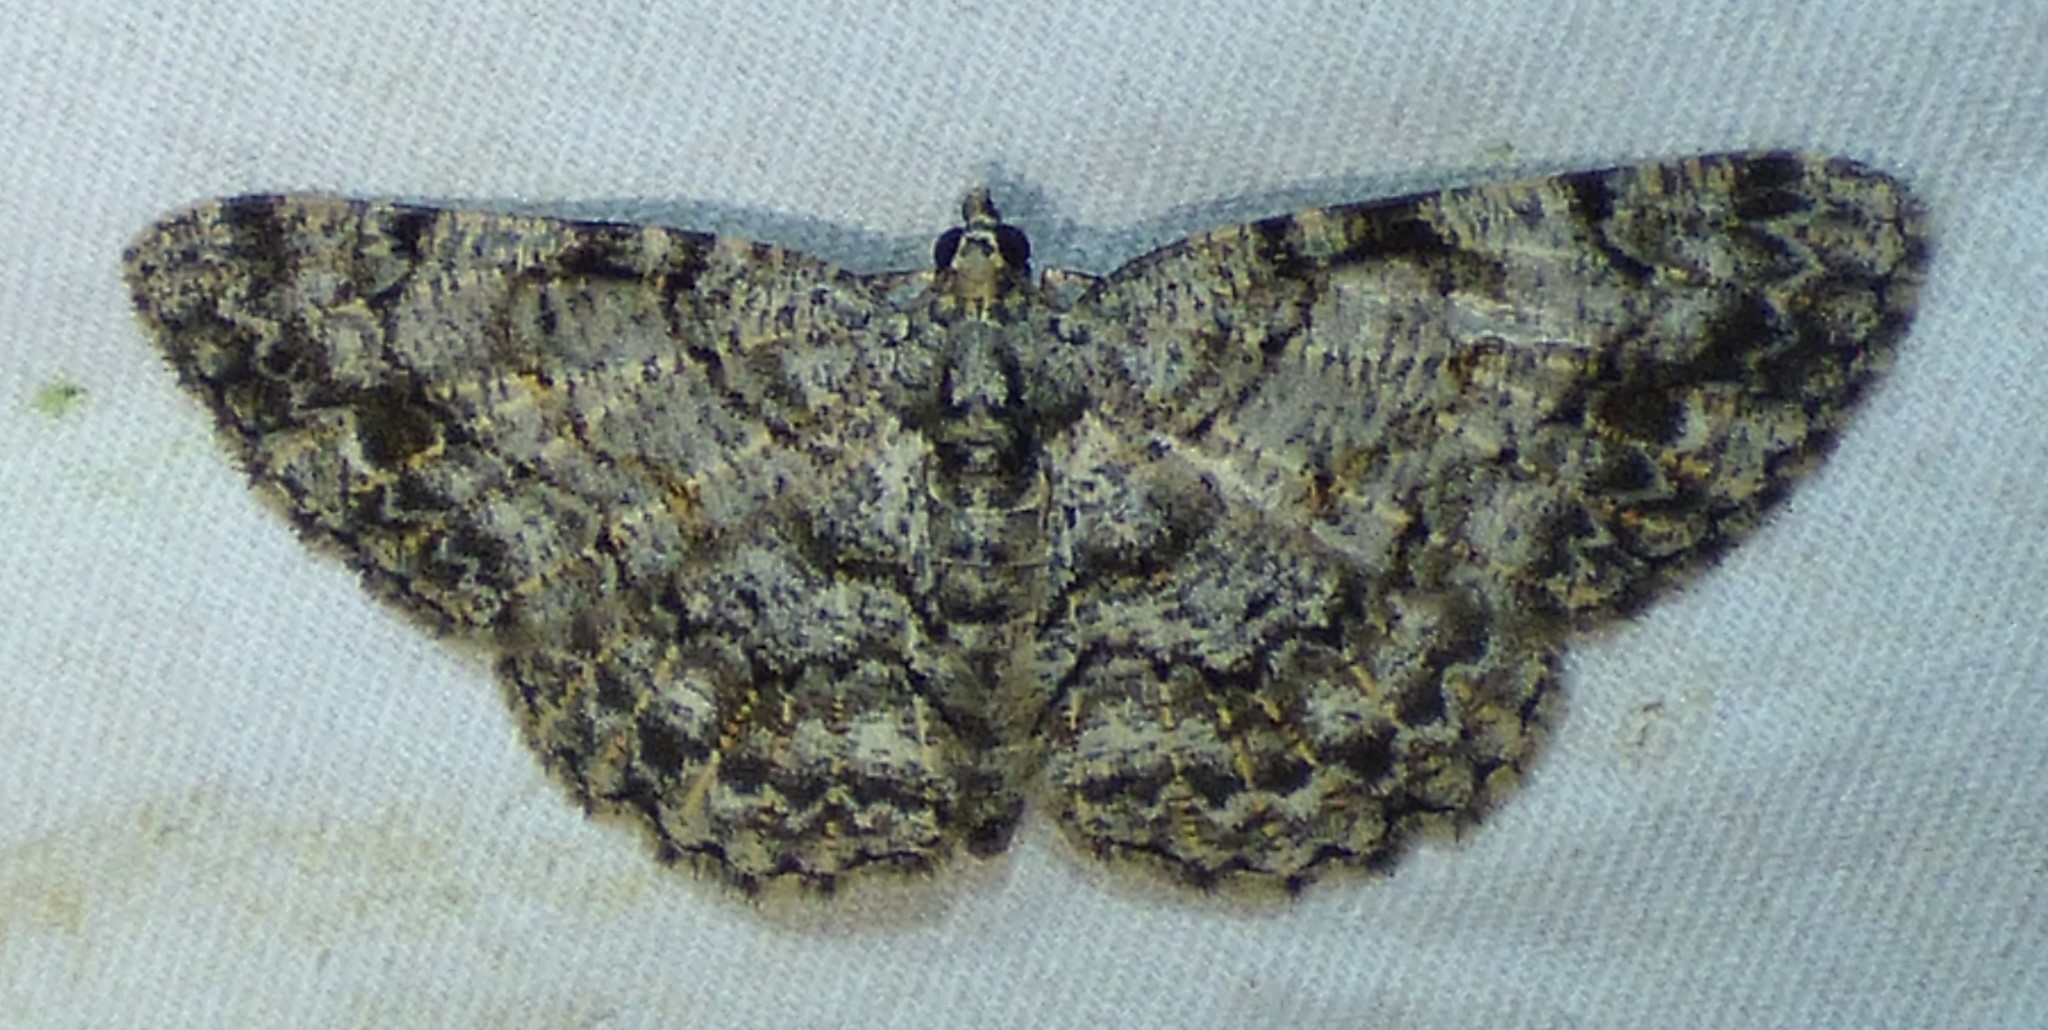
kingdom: Animalia
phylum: Arthropoda
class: Insecta
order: Lepidoptera
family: Geometridae
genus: Protoboarmia
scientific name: Protoboarmia porcelaria
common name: Porcelain gray
